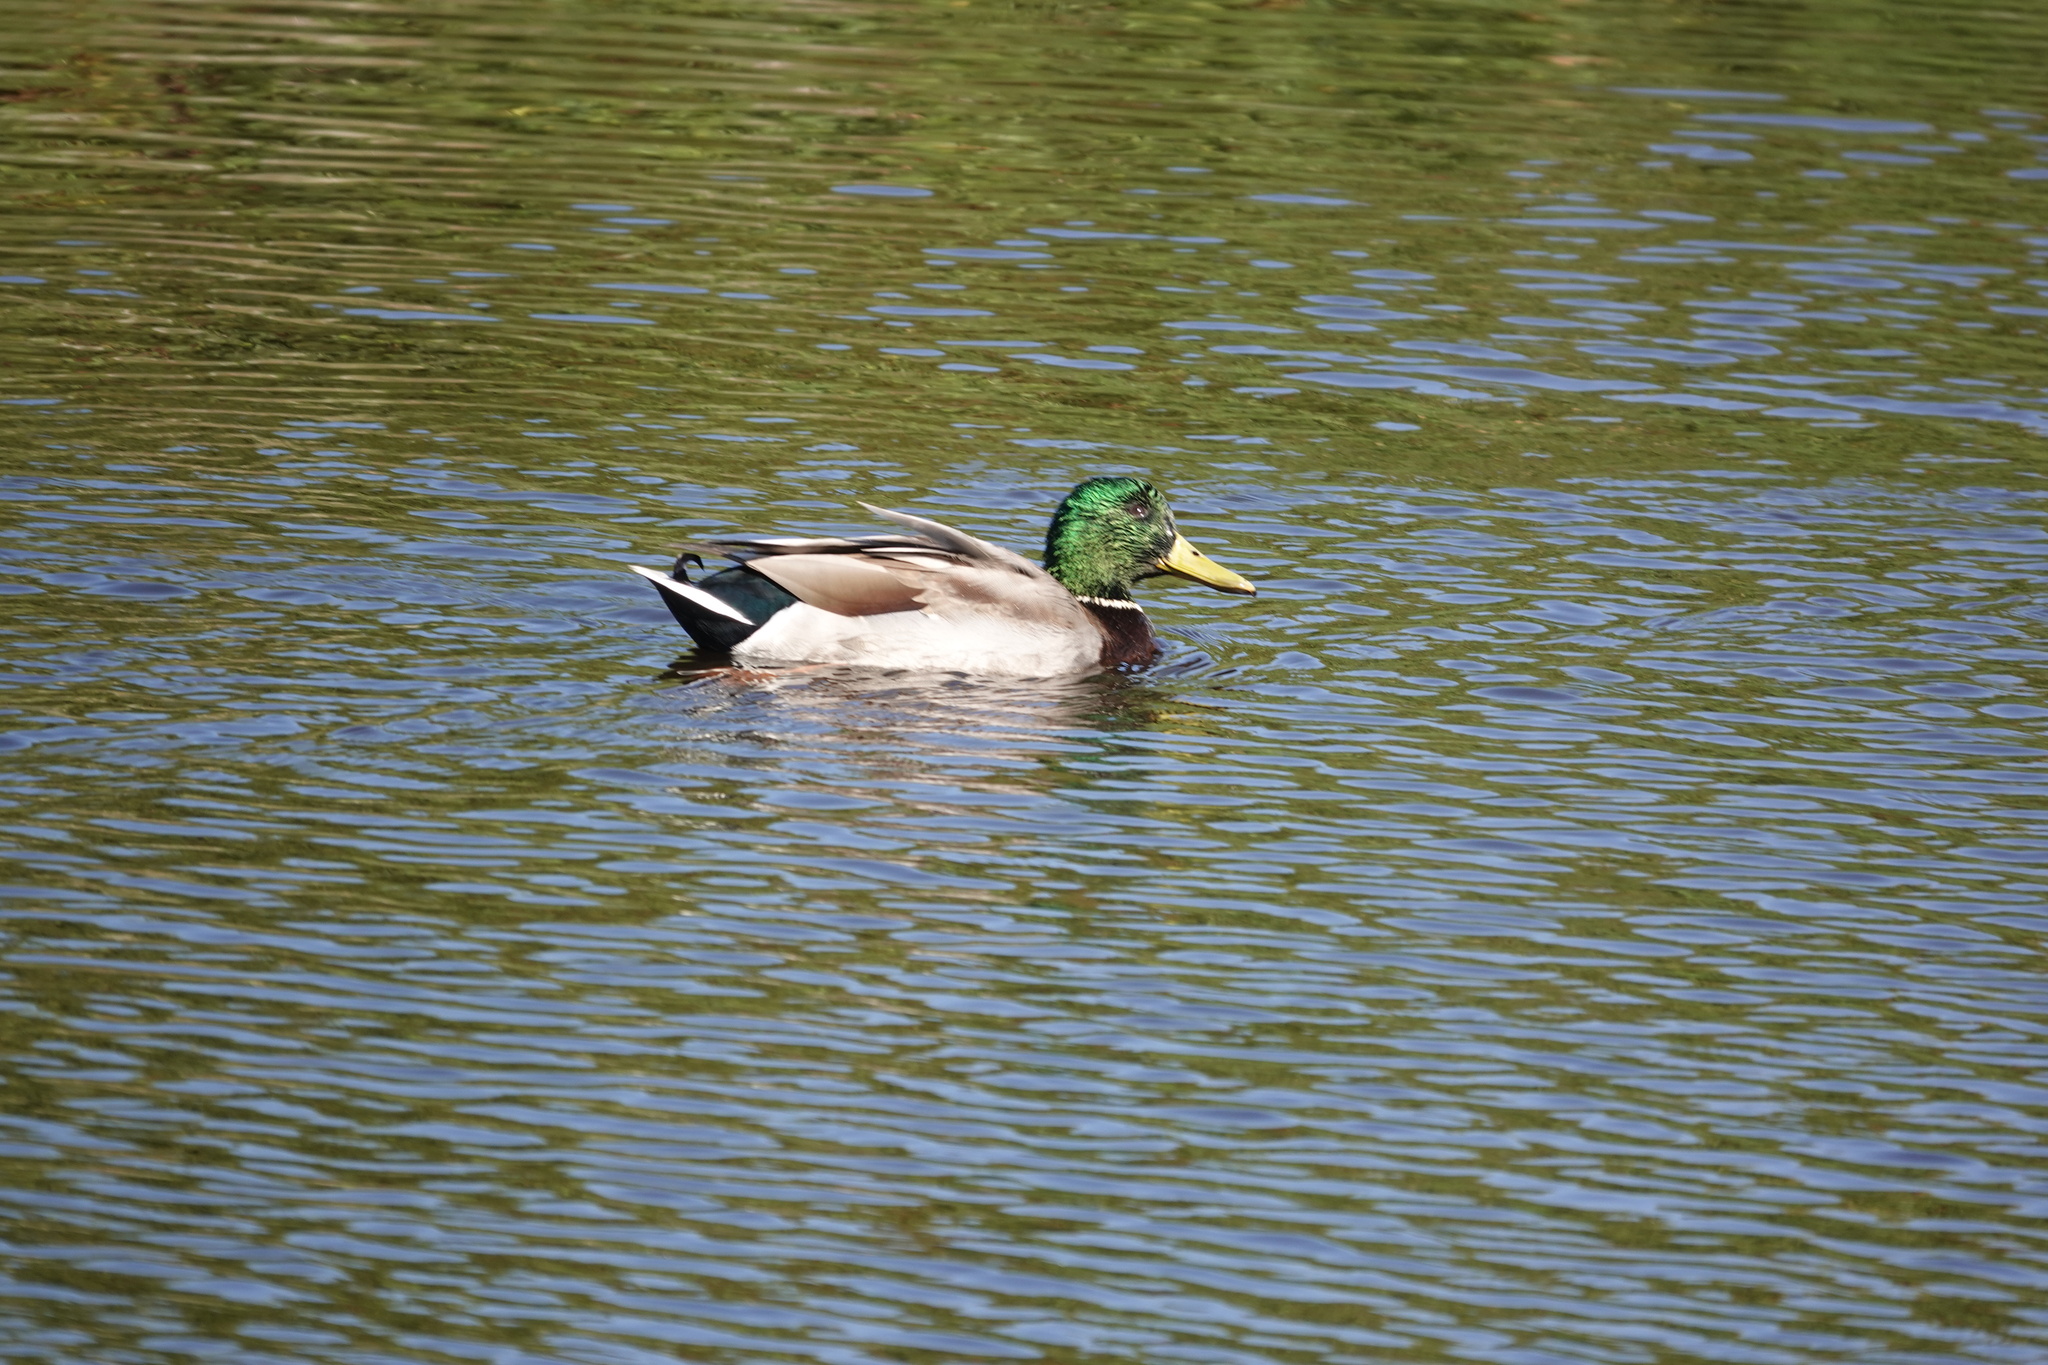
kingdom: Animalia
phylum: Chordata
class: Aves
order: Anseriformes
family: Anatidae
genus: Anas
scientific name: Anas platyrhynchos
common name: Mallard
